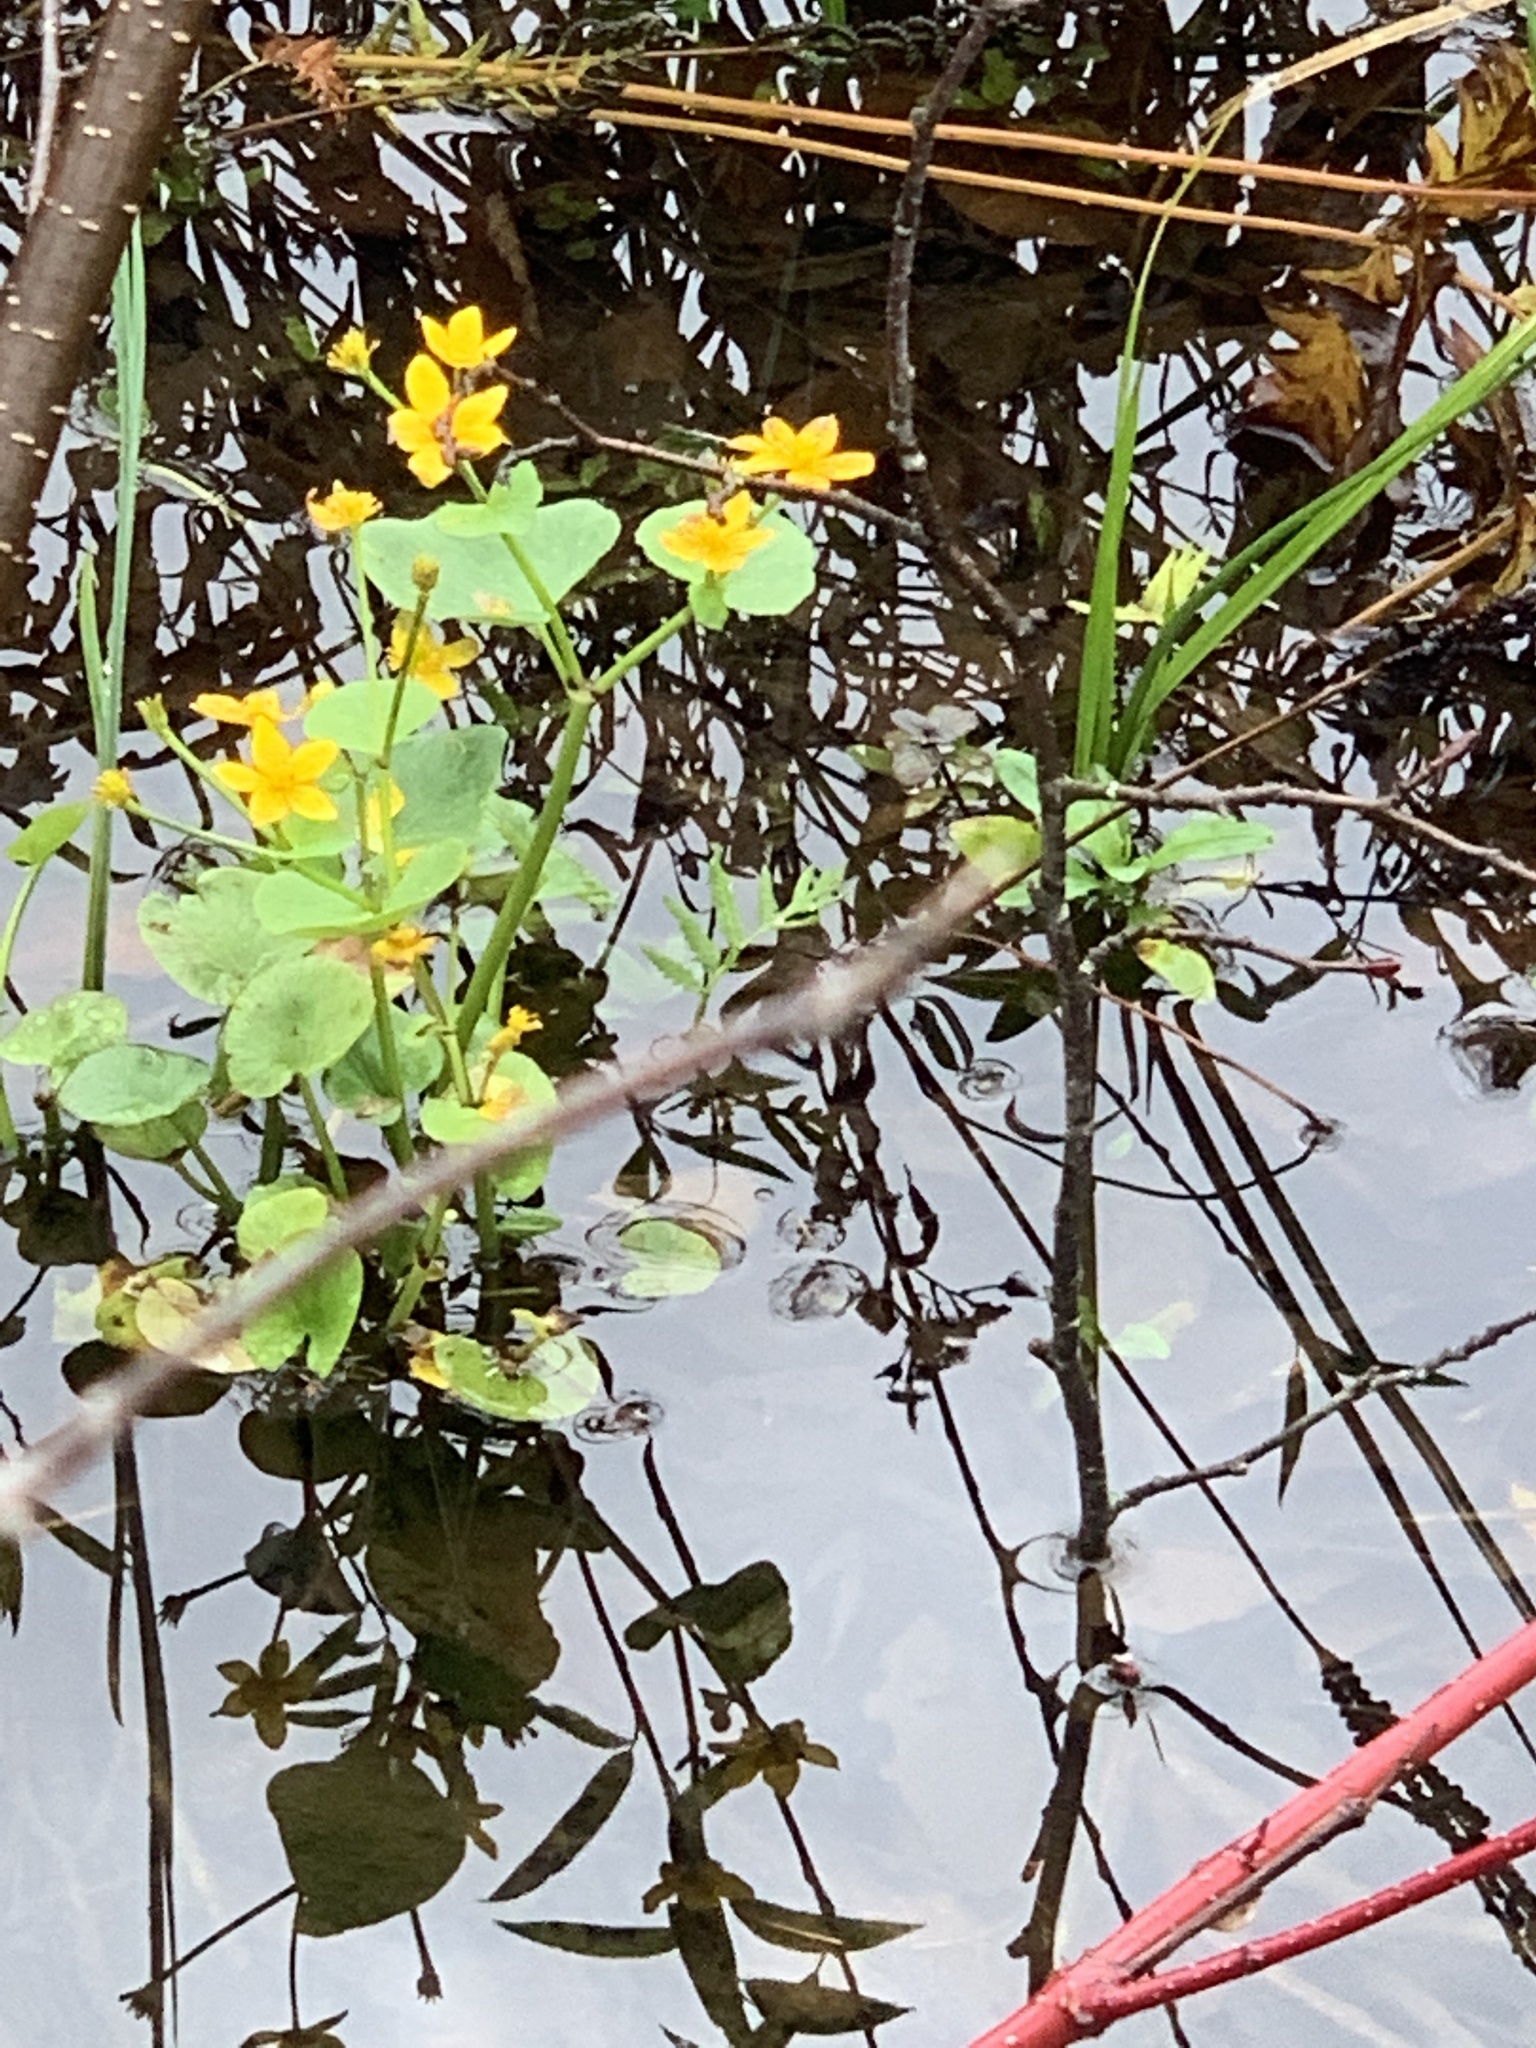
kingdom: Plantae
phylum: Tracheophyta
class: Magnoliopsida
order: Ranunculales
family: Ranunculaceae
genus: Caltha
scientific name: Caltha palustris
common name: Marsh marigold
